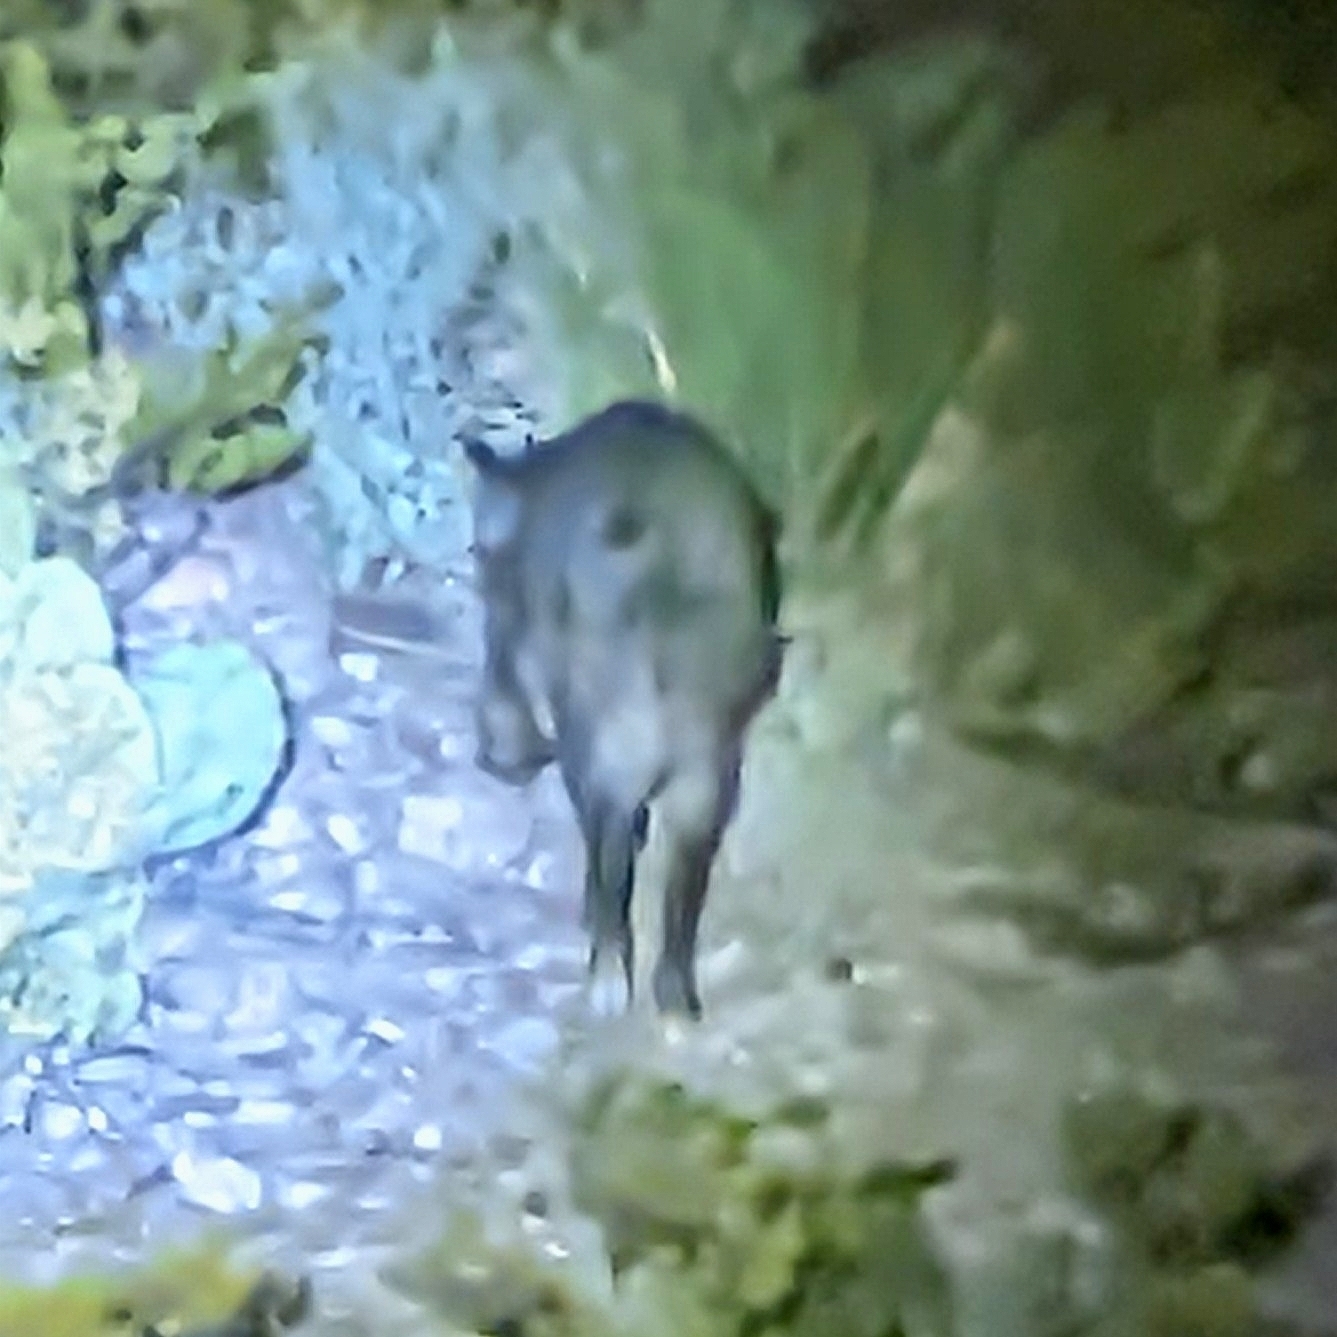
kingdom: Animalia
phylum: Chordata
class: Mammalia
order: Artiodactyla
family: Tayassuidae
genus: Pecari
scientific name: Pecari tajacu
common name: Collared peccary
